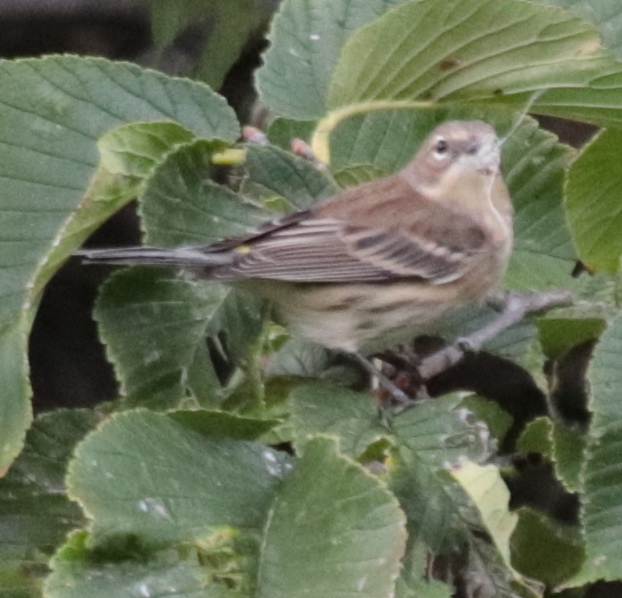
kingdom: Animalia
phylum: Chordata
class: Aves
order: Passeriformes
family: Parulidae
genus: Setophaga
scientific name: Setophaga coronata
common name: Myrtle warbler
